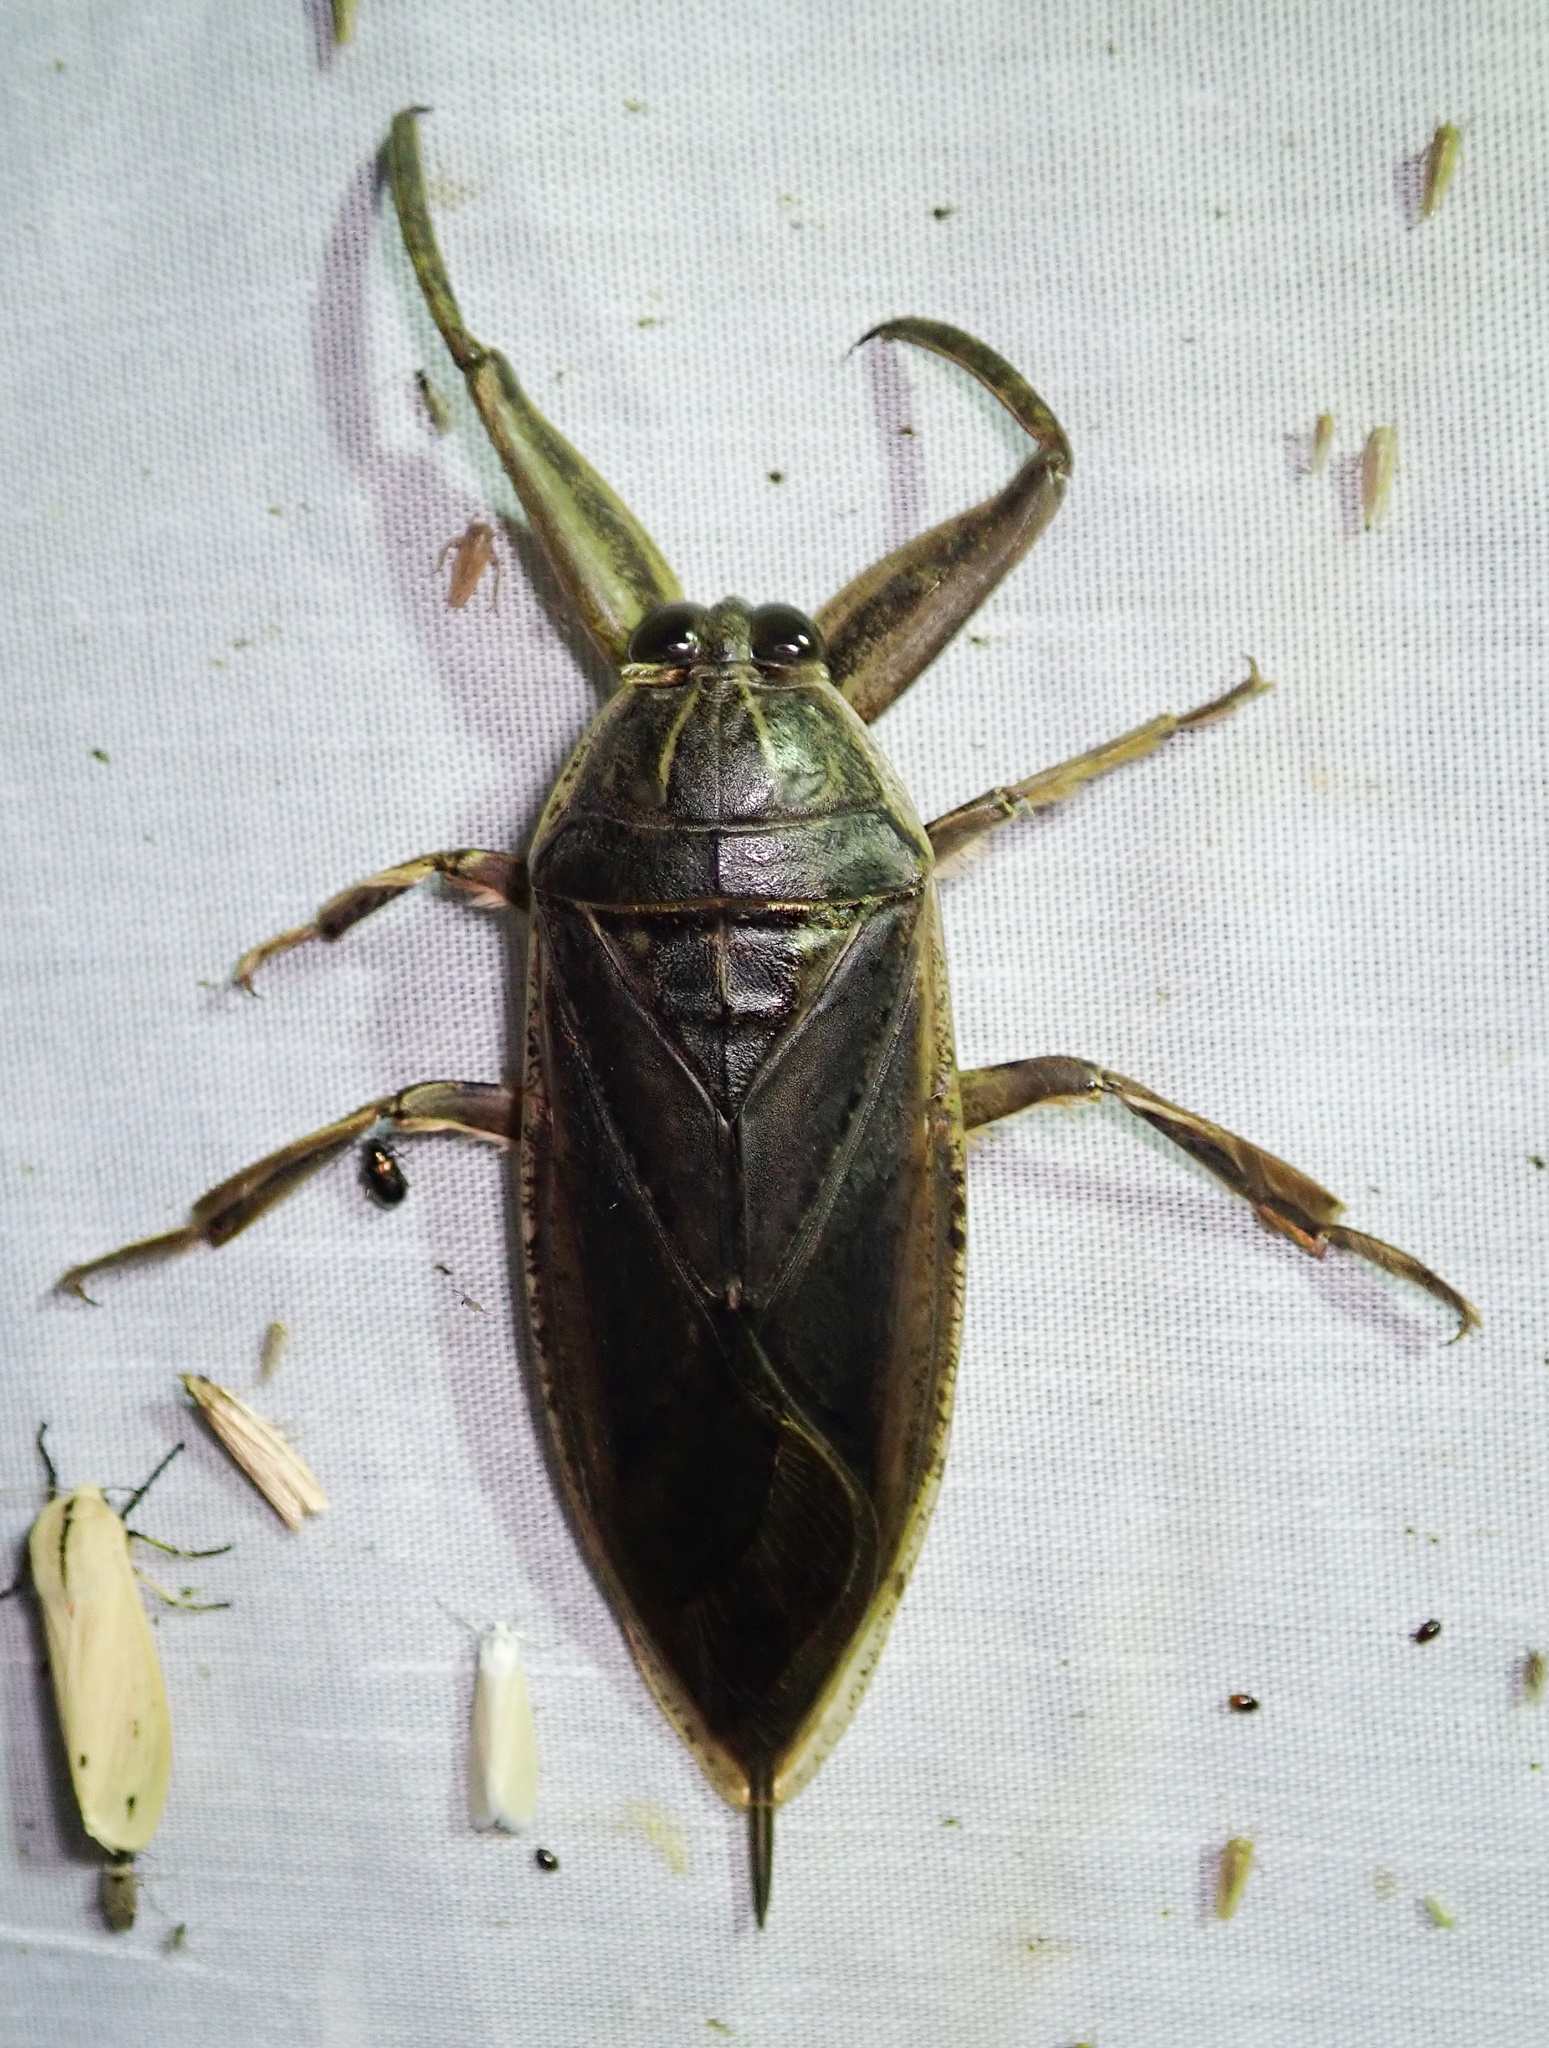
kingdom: Animalia
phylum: Arthropoda
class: Insecta
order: Hemiptera
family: Belostomatidae
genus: Lethocerus
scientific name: Lethocerus cordofanus
